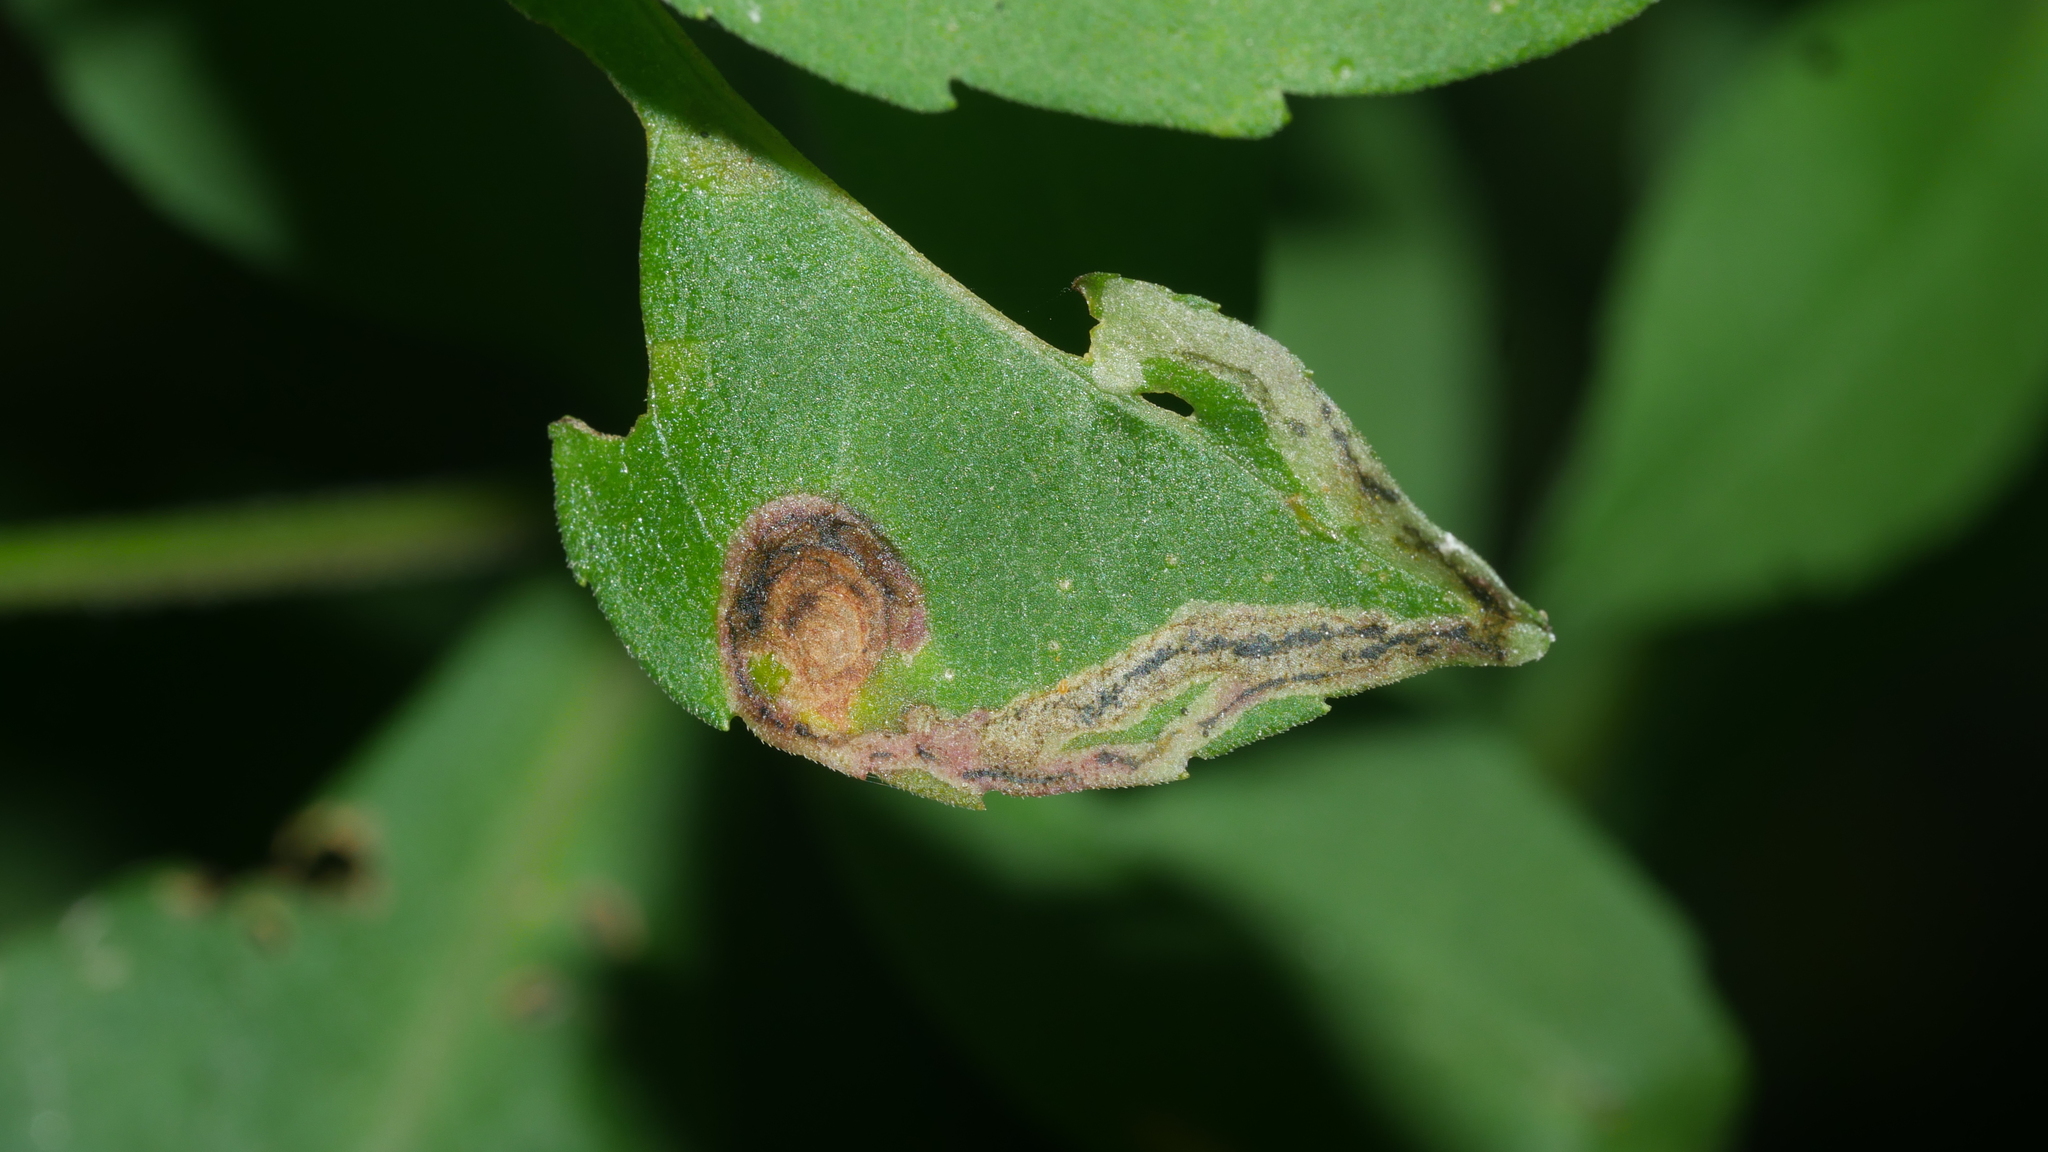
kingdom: Animalia
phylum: Arthropoda
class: Insecta
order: Diptera
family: Agromyzidae
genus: Liriomyza
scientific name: Liriomyza eupatorii
